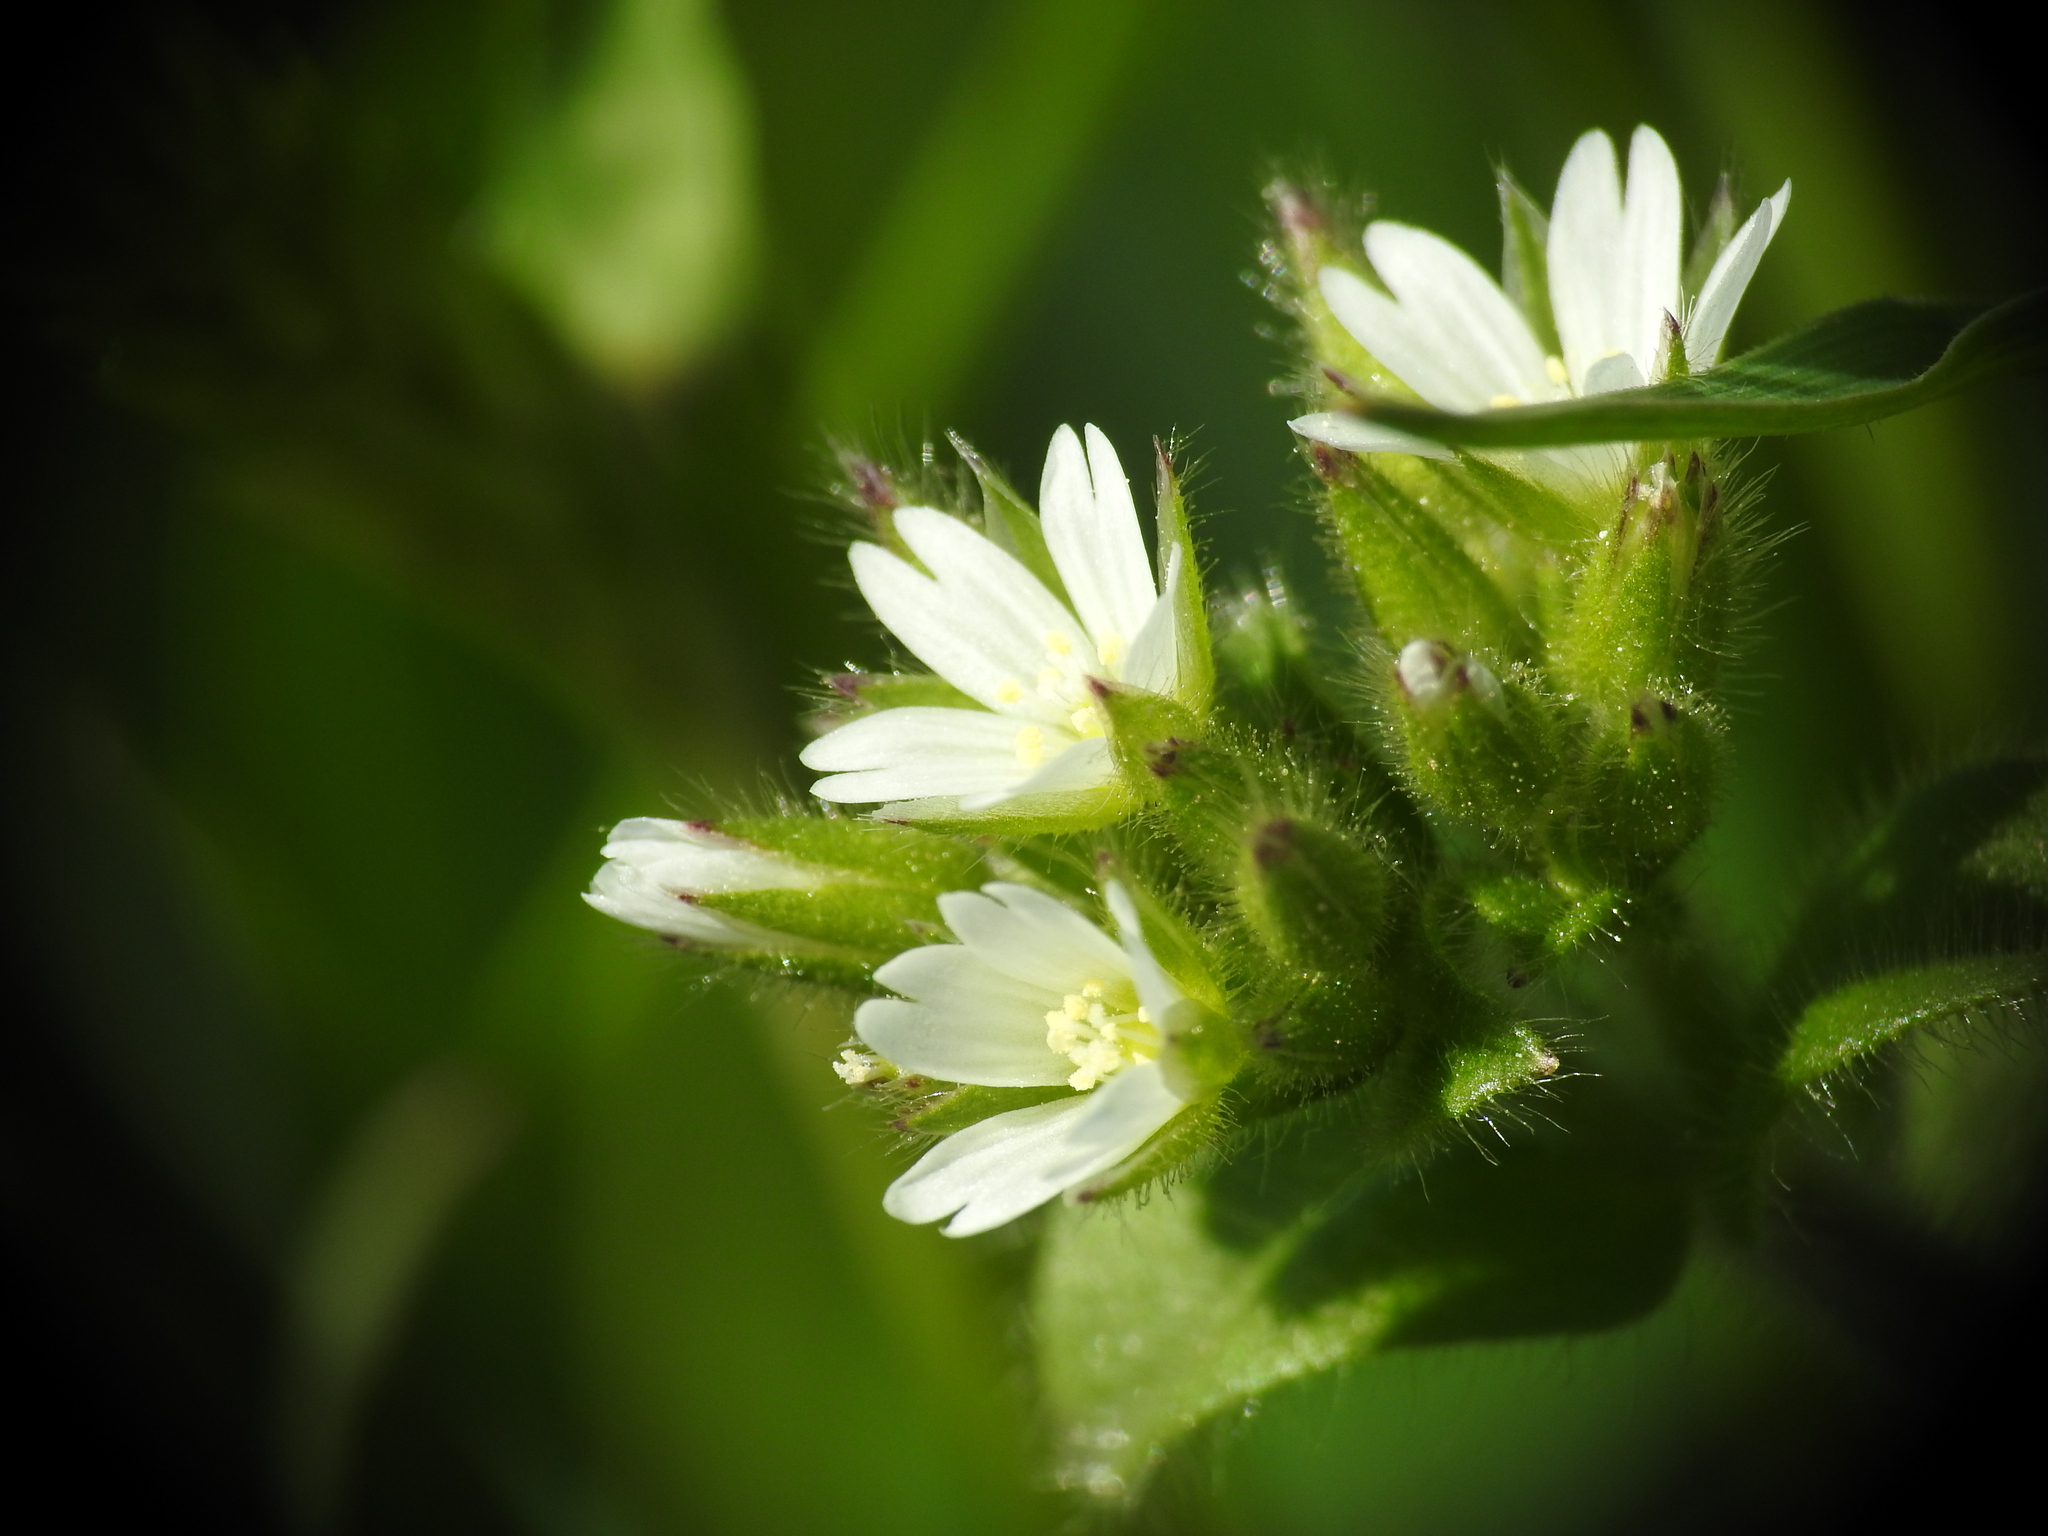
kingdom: Plantae
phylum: Tracheophyta
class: Magnoliopsida
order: Caryophyllales
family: Caryophyllaceae
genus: Cerastium
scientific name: Cerastium glomeratum
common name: Sticky chickweed
